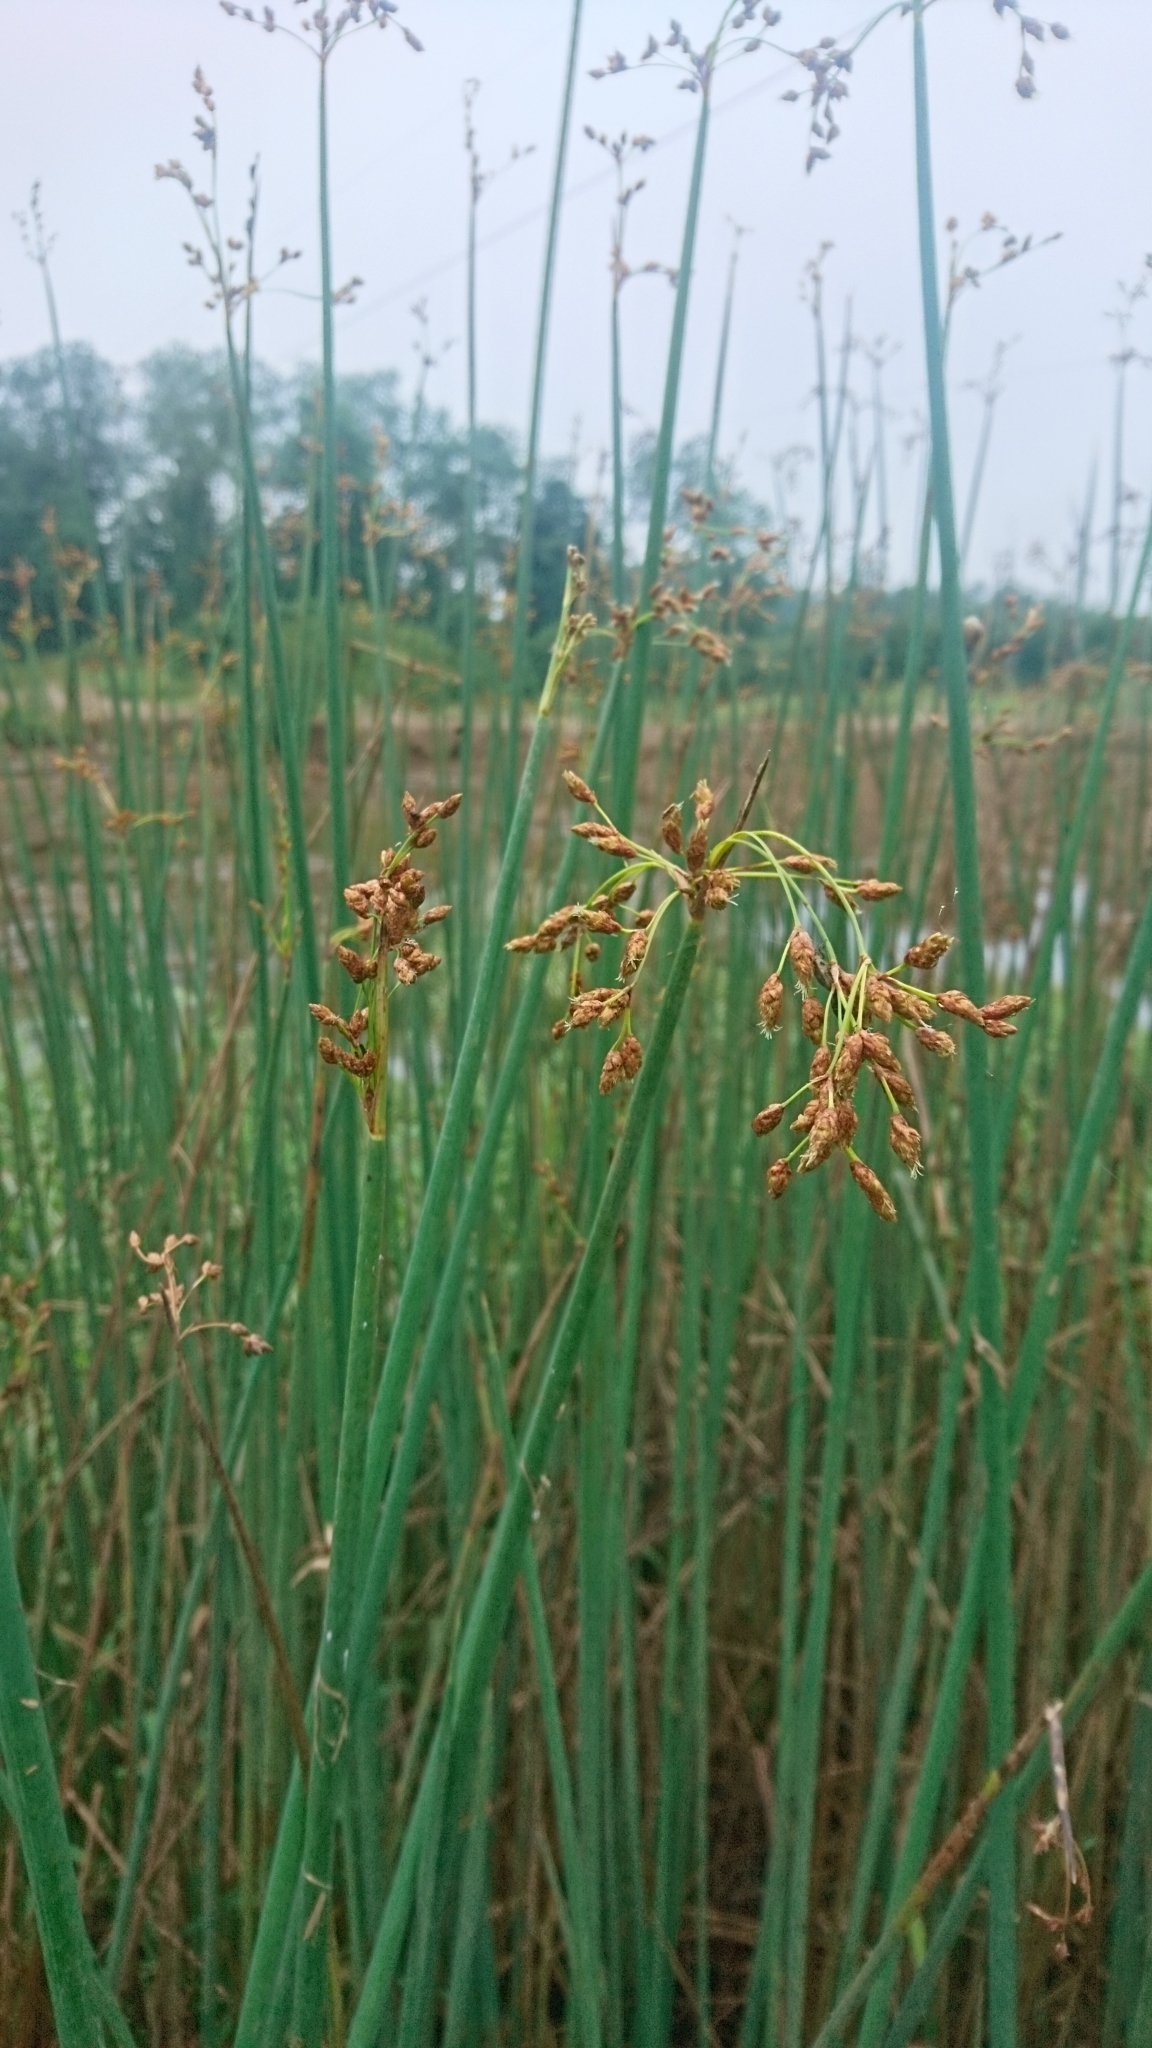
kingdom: Plantae
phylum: Tracheophyta
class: Liliopsida
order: Poales
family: Cyperaceae
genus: Schoenoplectus
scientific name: Schoenoplectus tabernaemontani
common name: Grey club-rush
